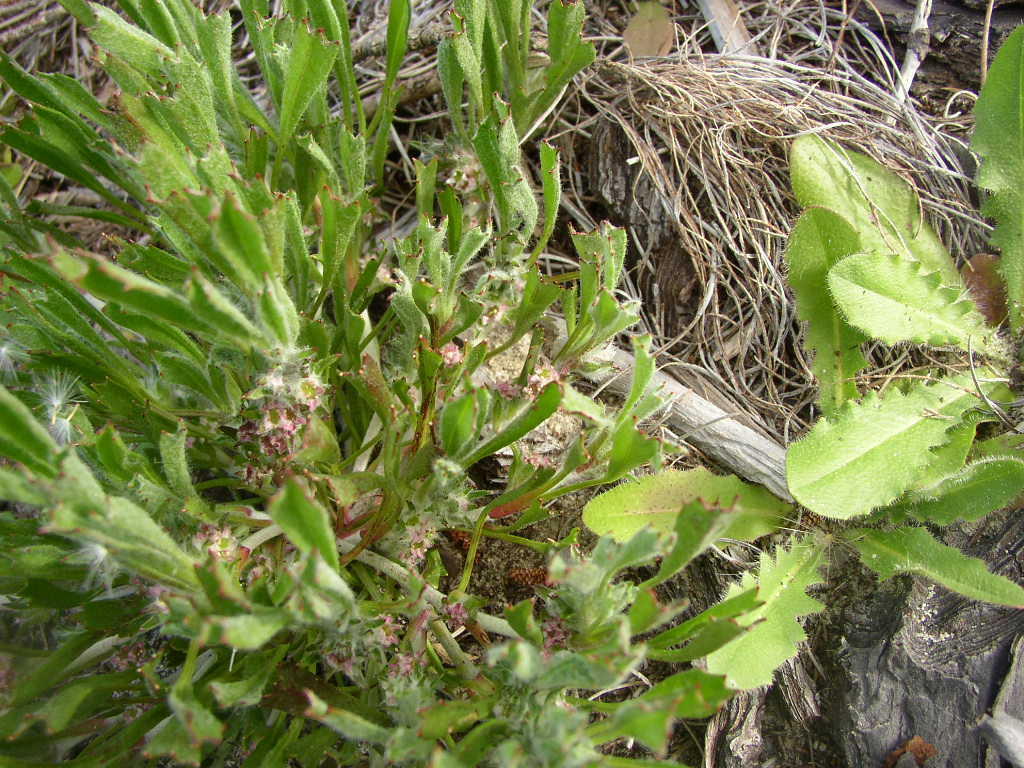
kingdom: Plantae
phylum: Tracheophyta
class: Magnoliopsida
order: Apiales
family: Apiaceae
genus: Centella
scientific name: Centella tridentata
